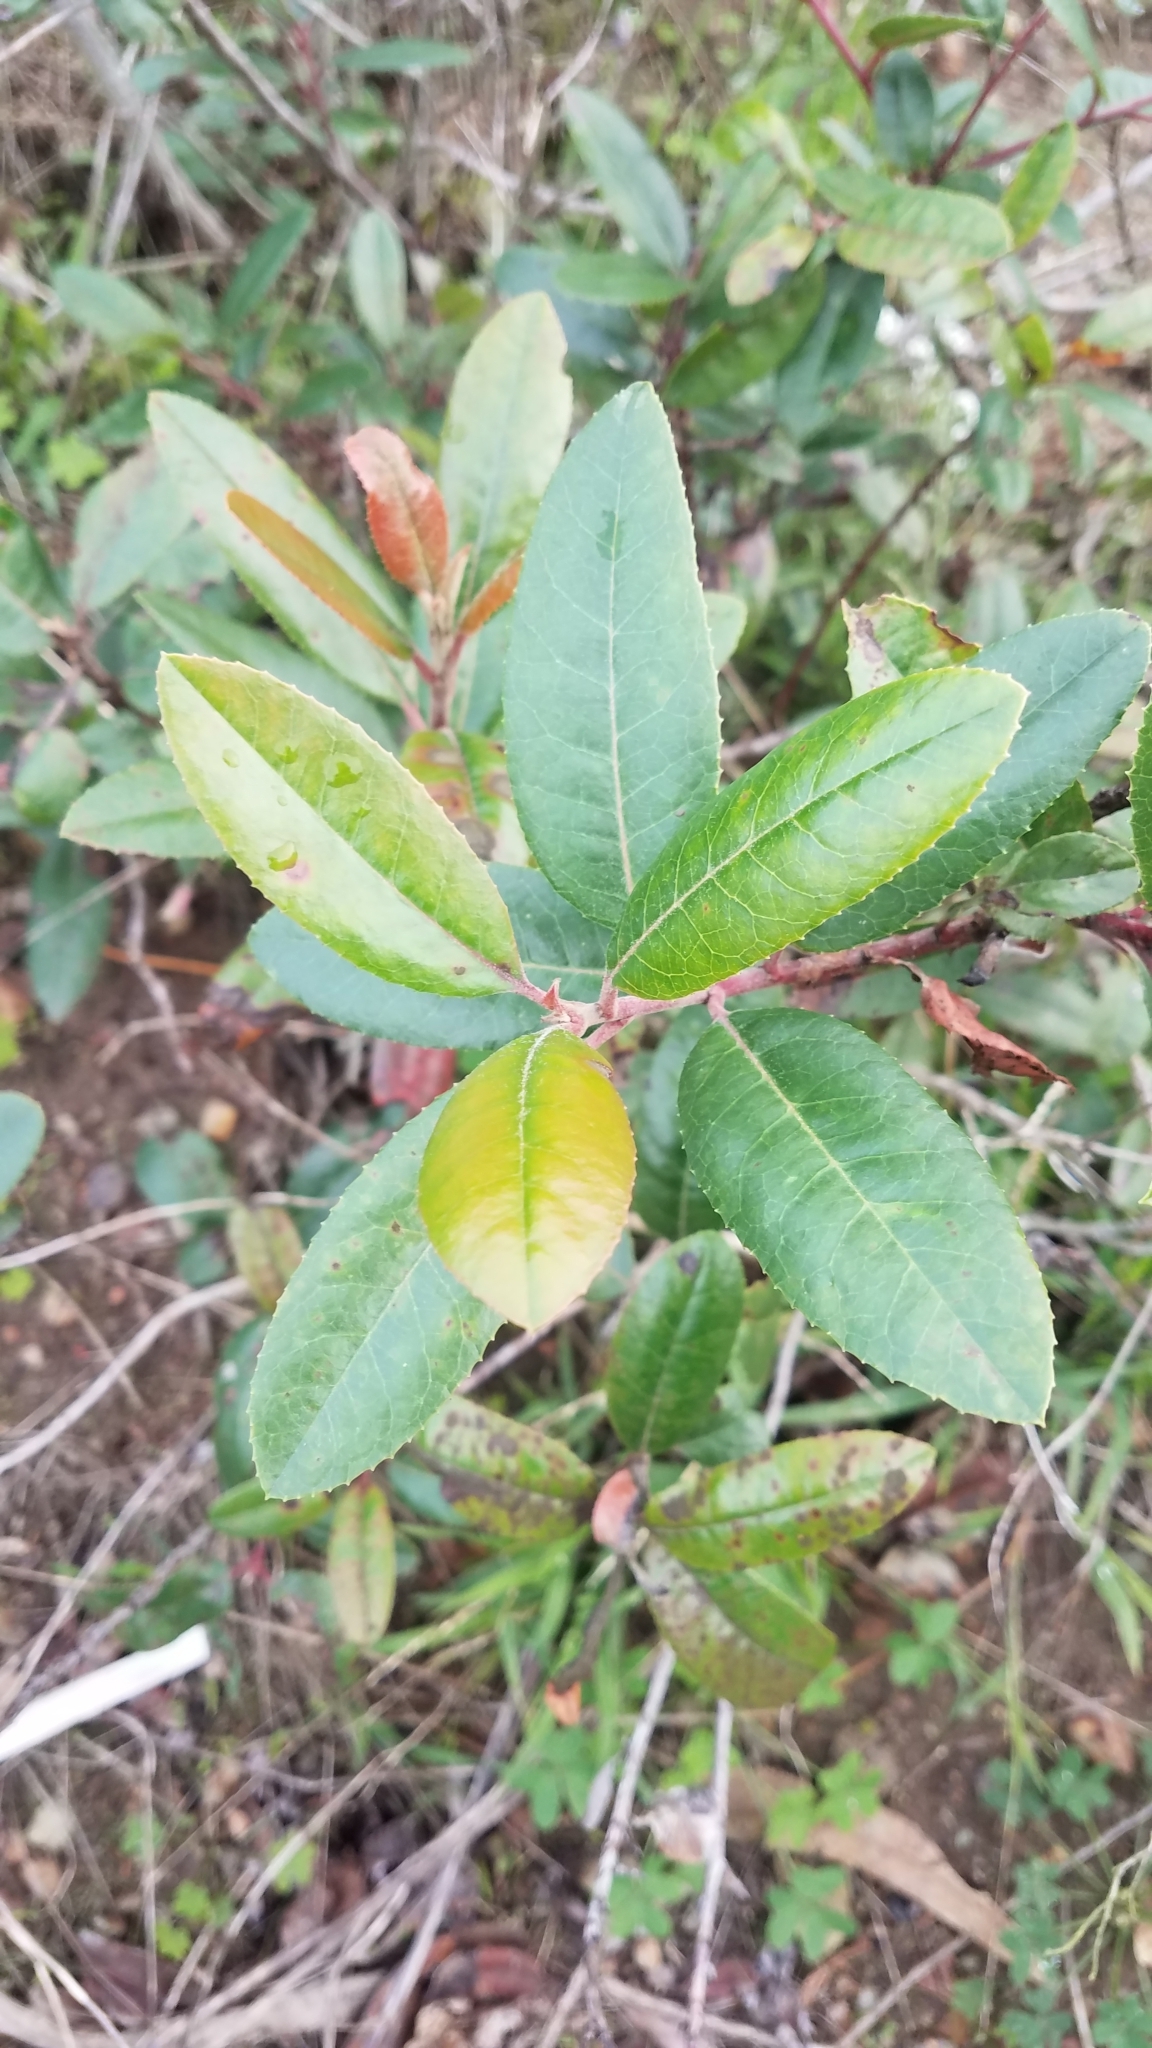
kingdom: Plantae
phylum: Tracheophyta
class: Magnoliopsida
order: Rosales
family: Rhamnaceae
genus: Frangula
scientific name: Frangula californica
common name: California buckthorn
